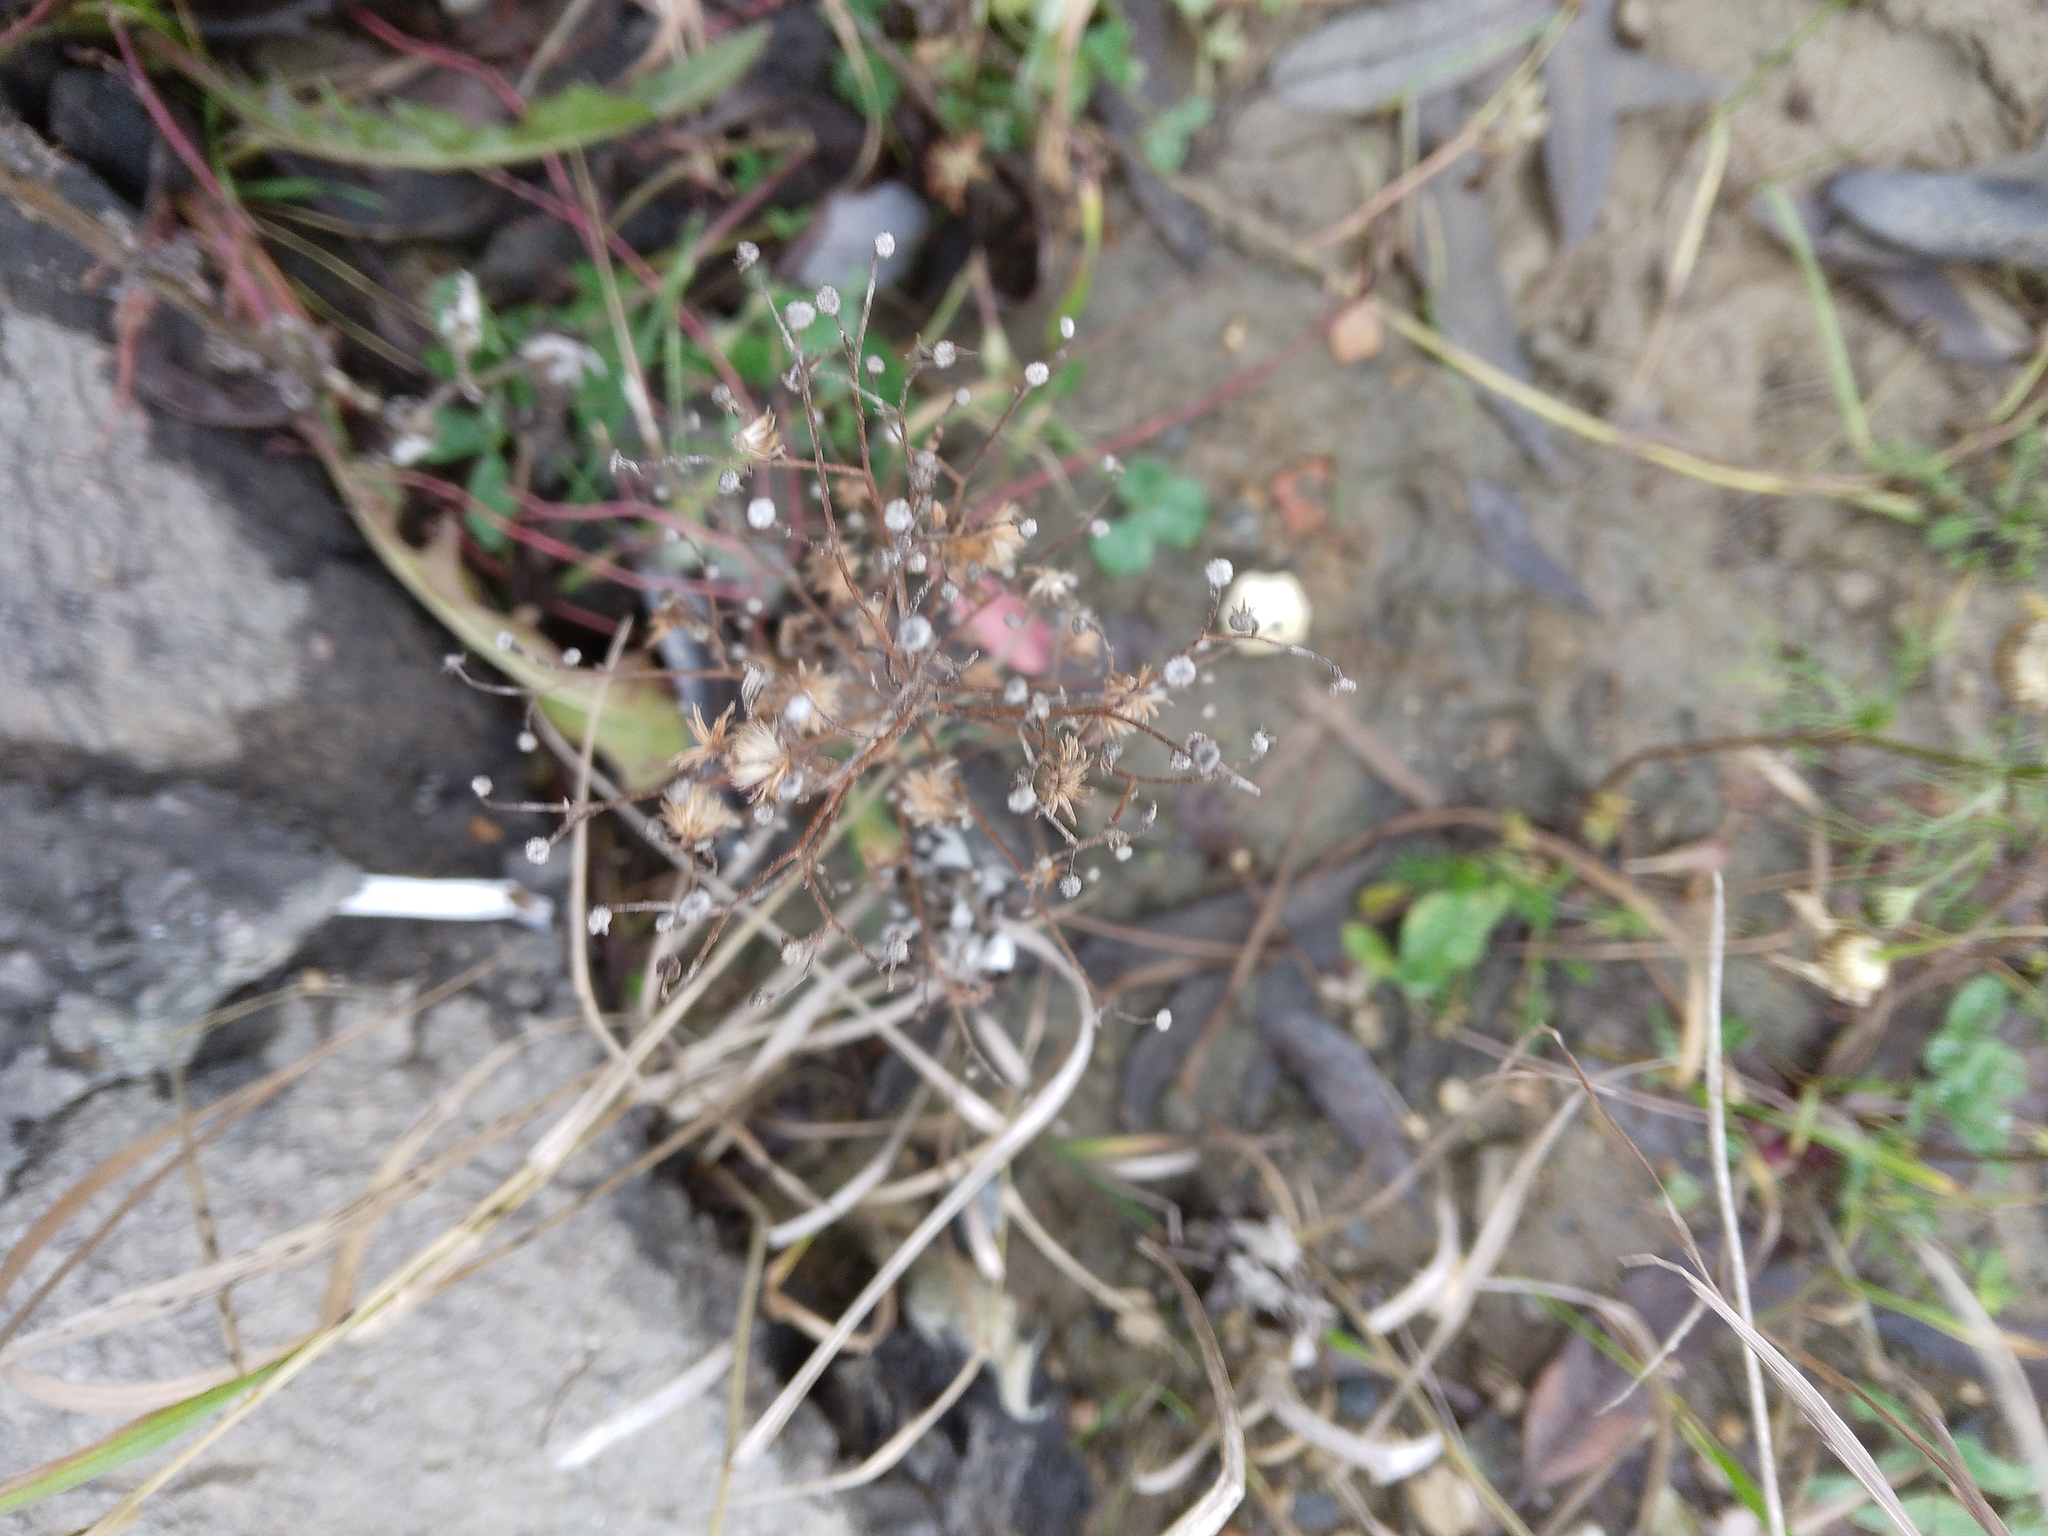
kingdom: Plantae
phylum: Tracheophyta
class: Magnoliopsida
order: Asterales
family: Asteraceae
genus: Erigeron
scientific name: Erigeron canadensis
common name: Canadian fleabane
